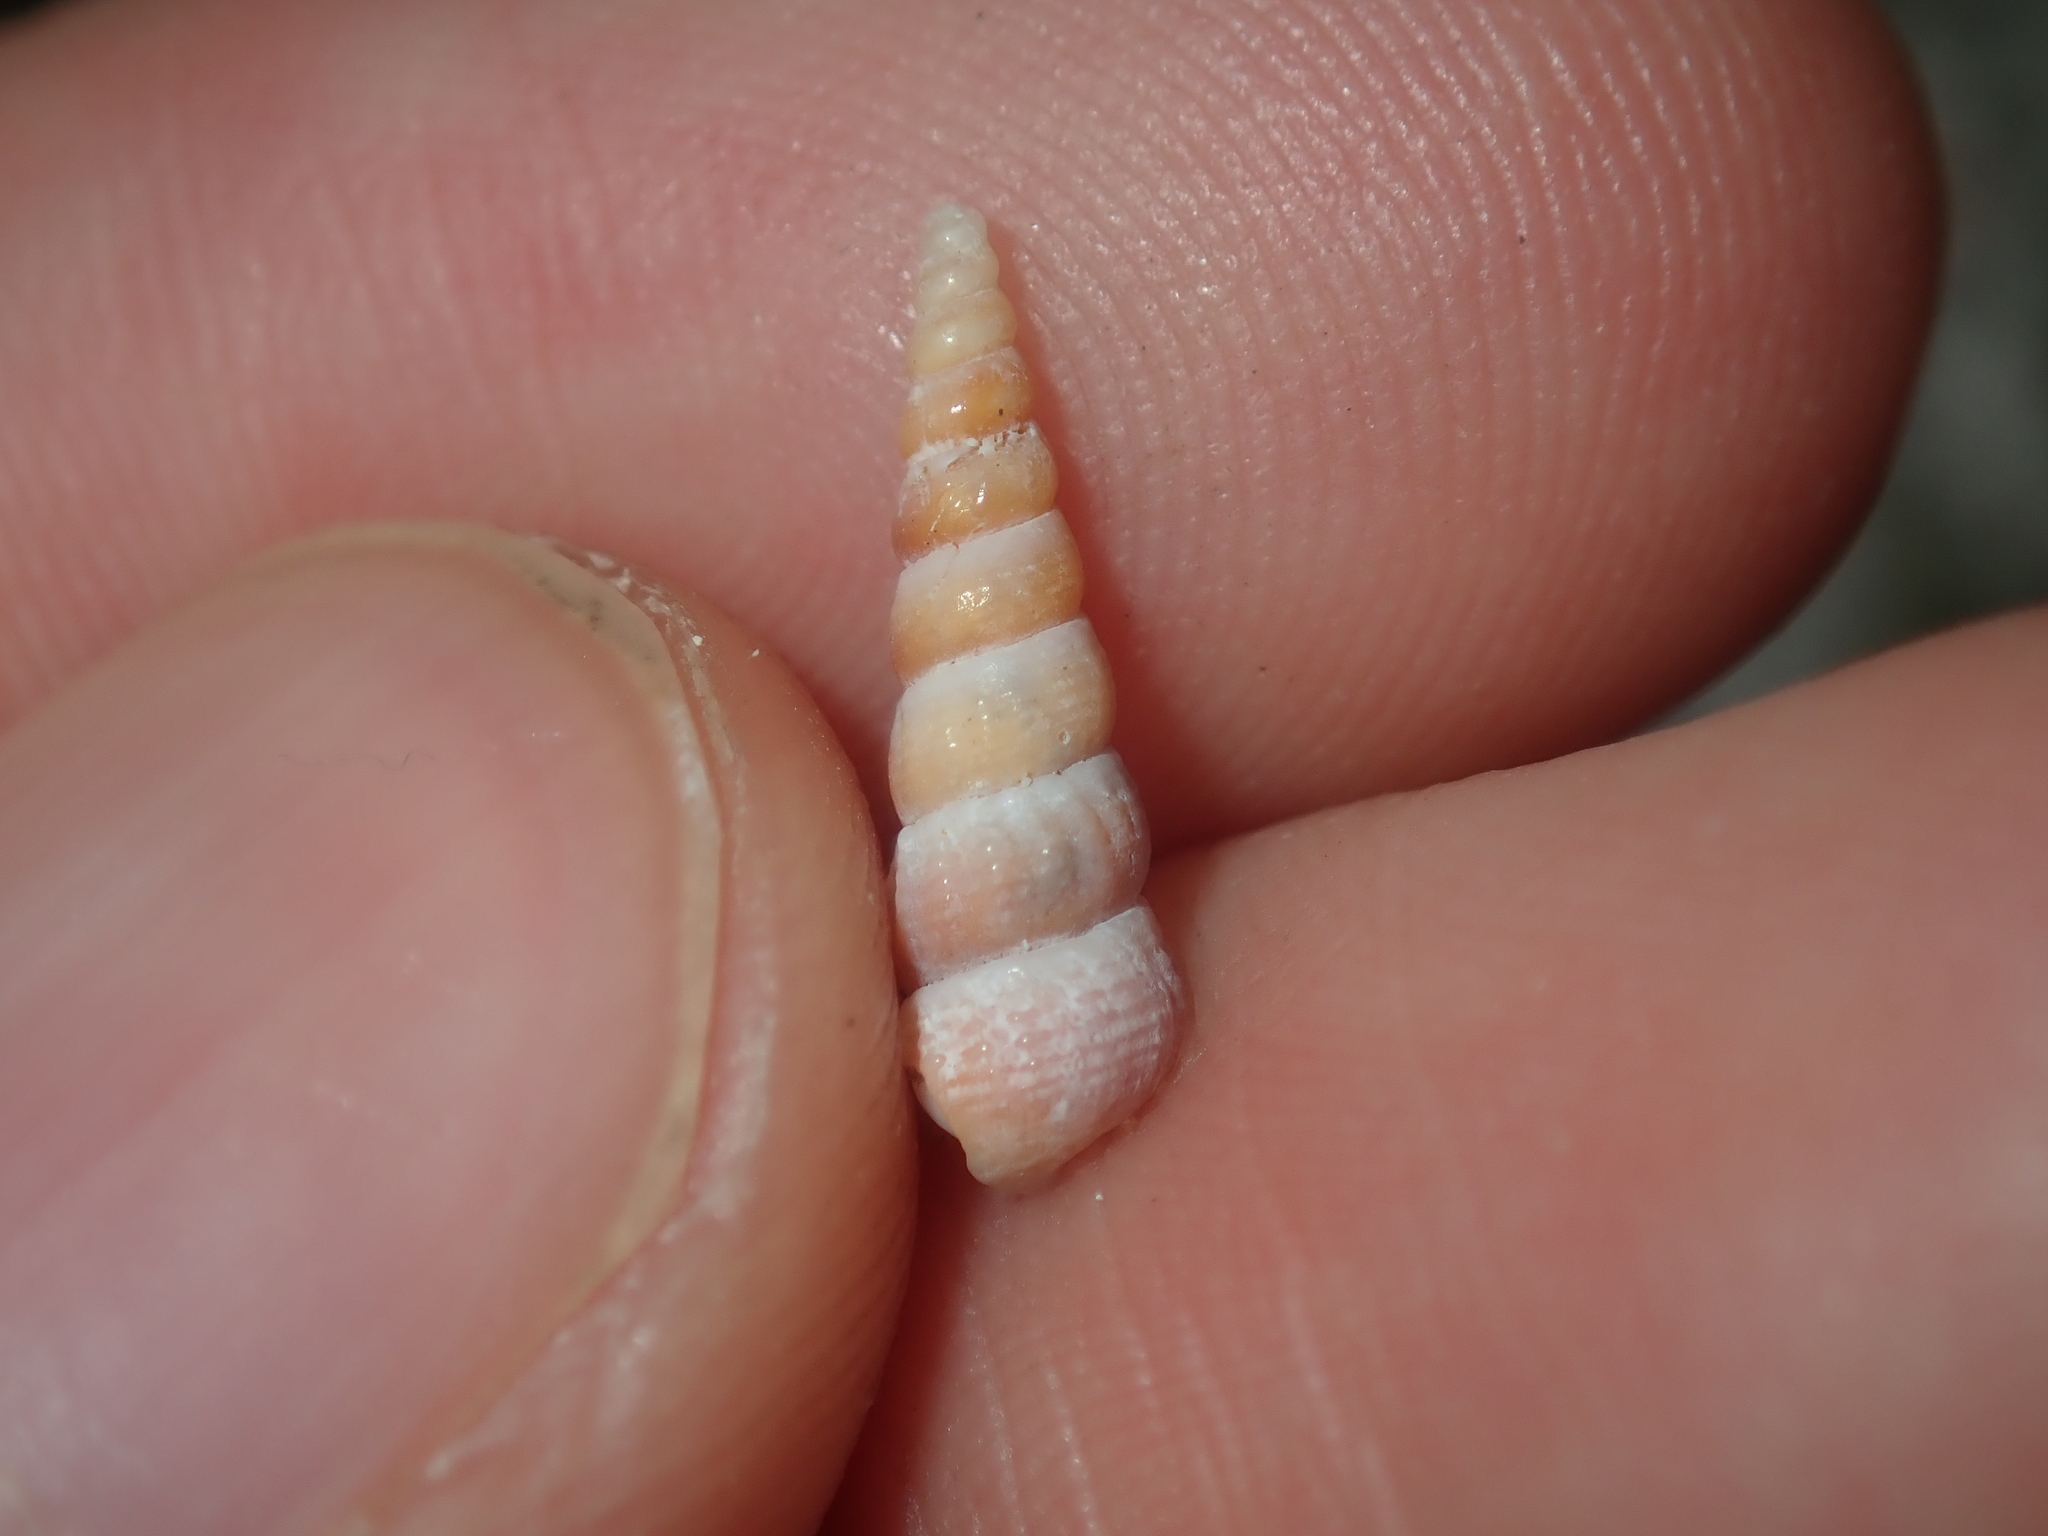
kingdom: Animalia
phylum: Mollusca
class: Gastropoda
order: Littorinimorpha
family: Tomichiidae
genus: Coxiella
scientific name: Coxiella striatula
